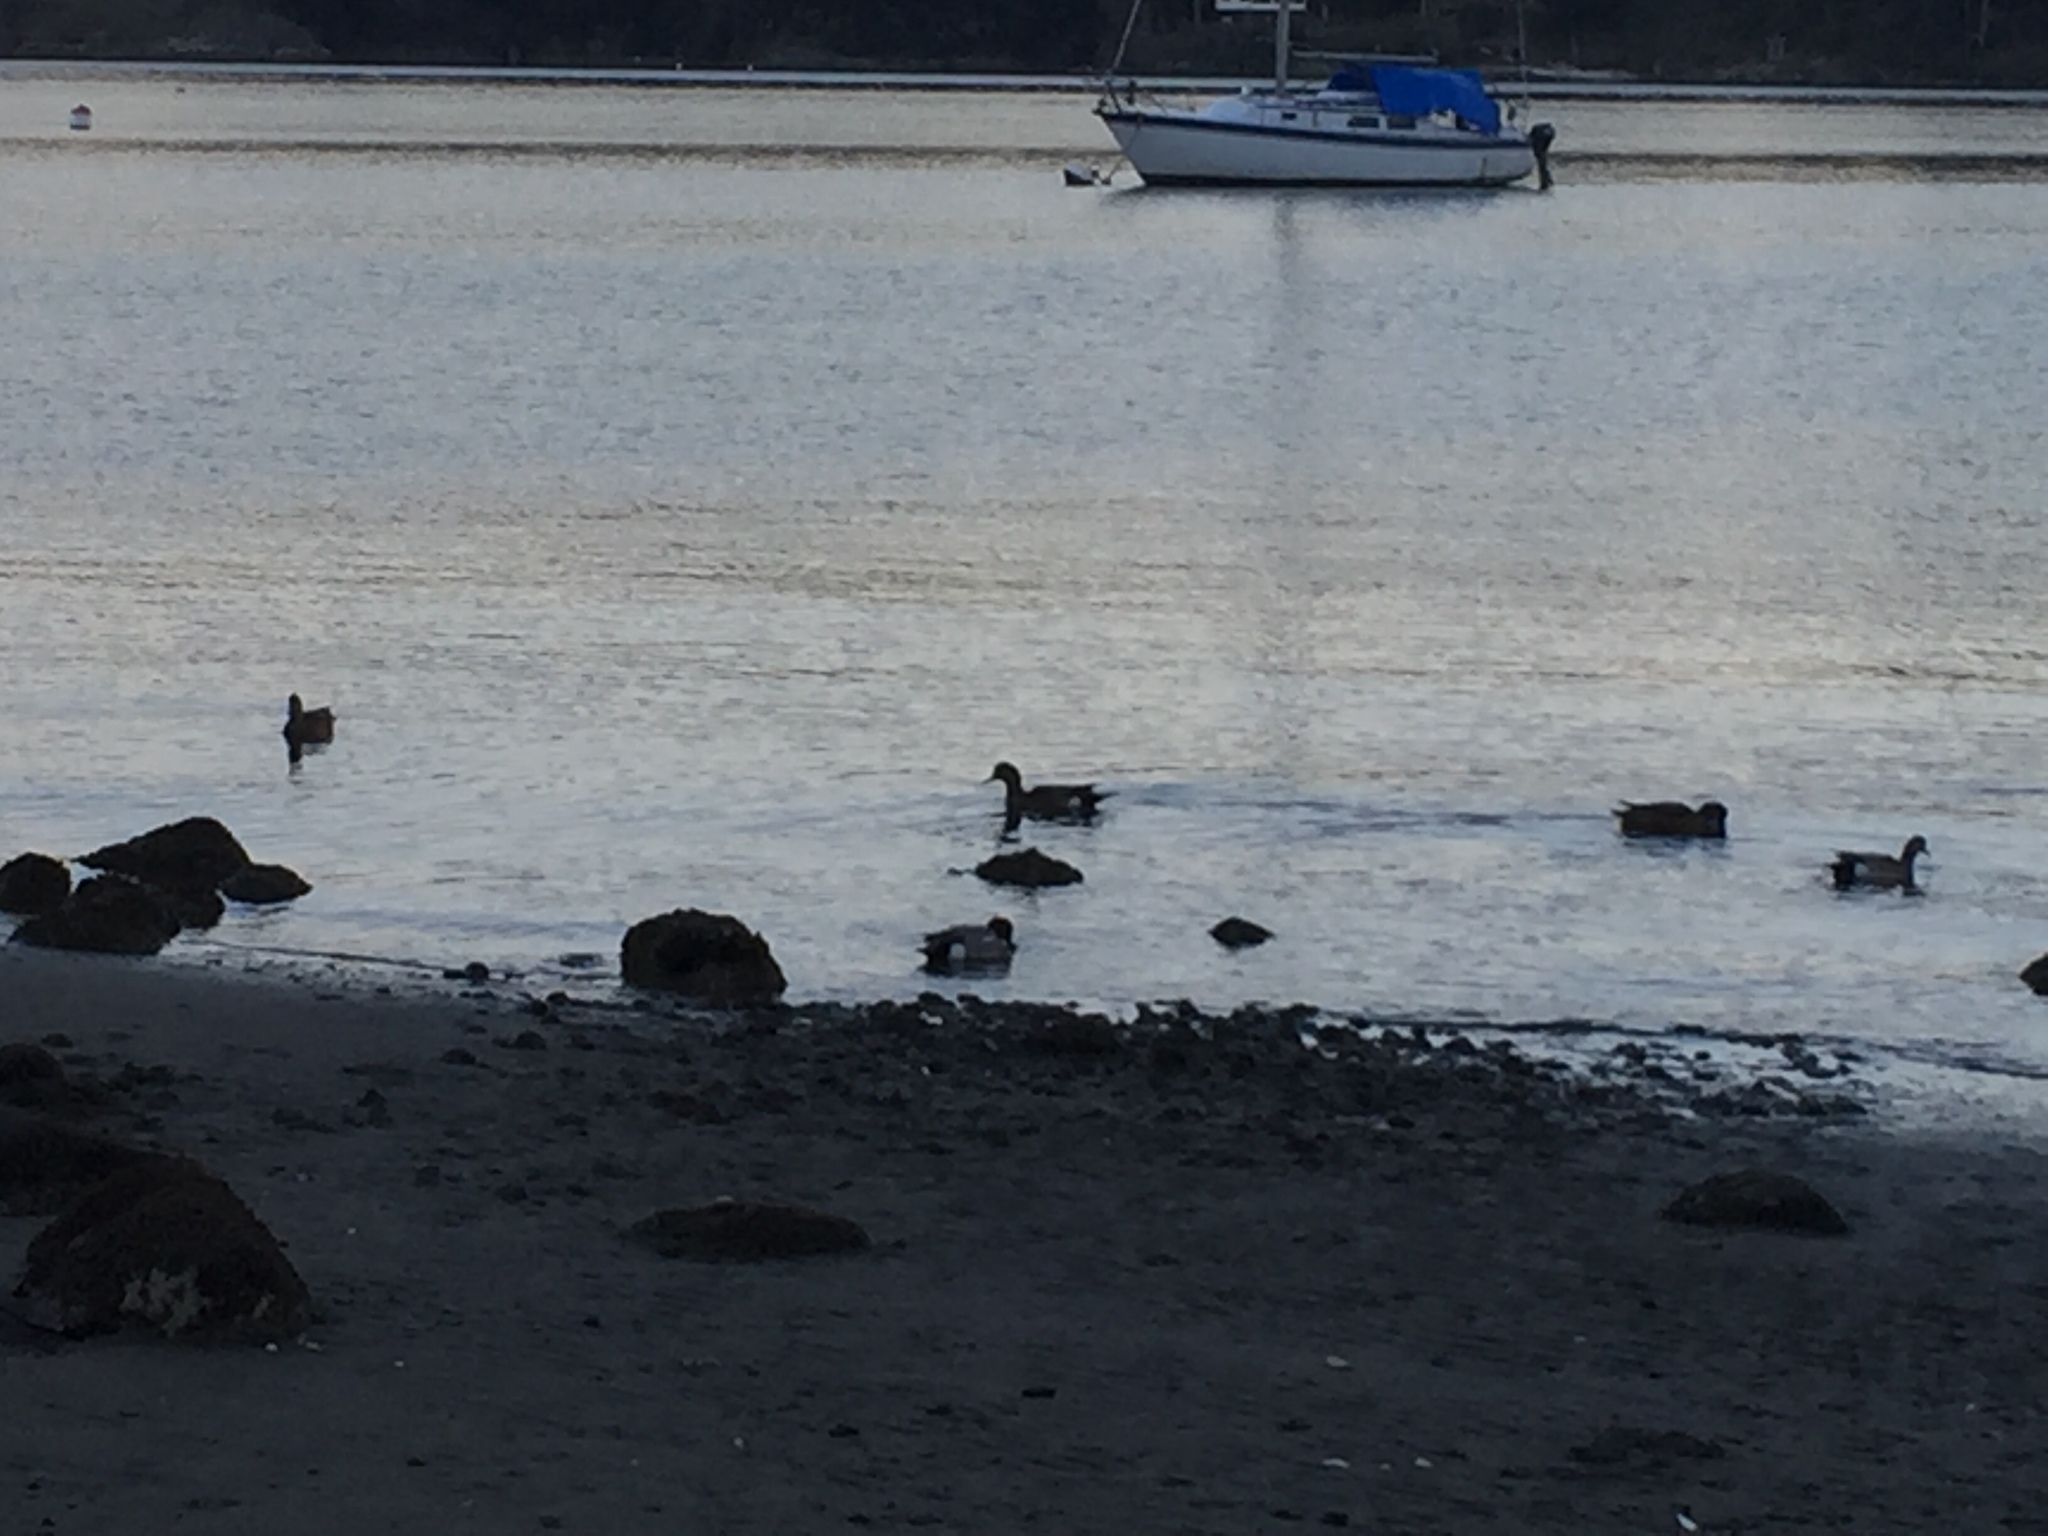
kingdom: Animalia
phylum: Chordata
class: Aves
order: Anseriformes
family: Anatidae
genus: Mareca
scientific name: Mareca americana
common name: American wigeon
